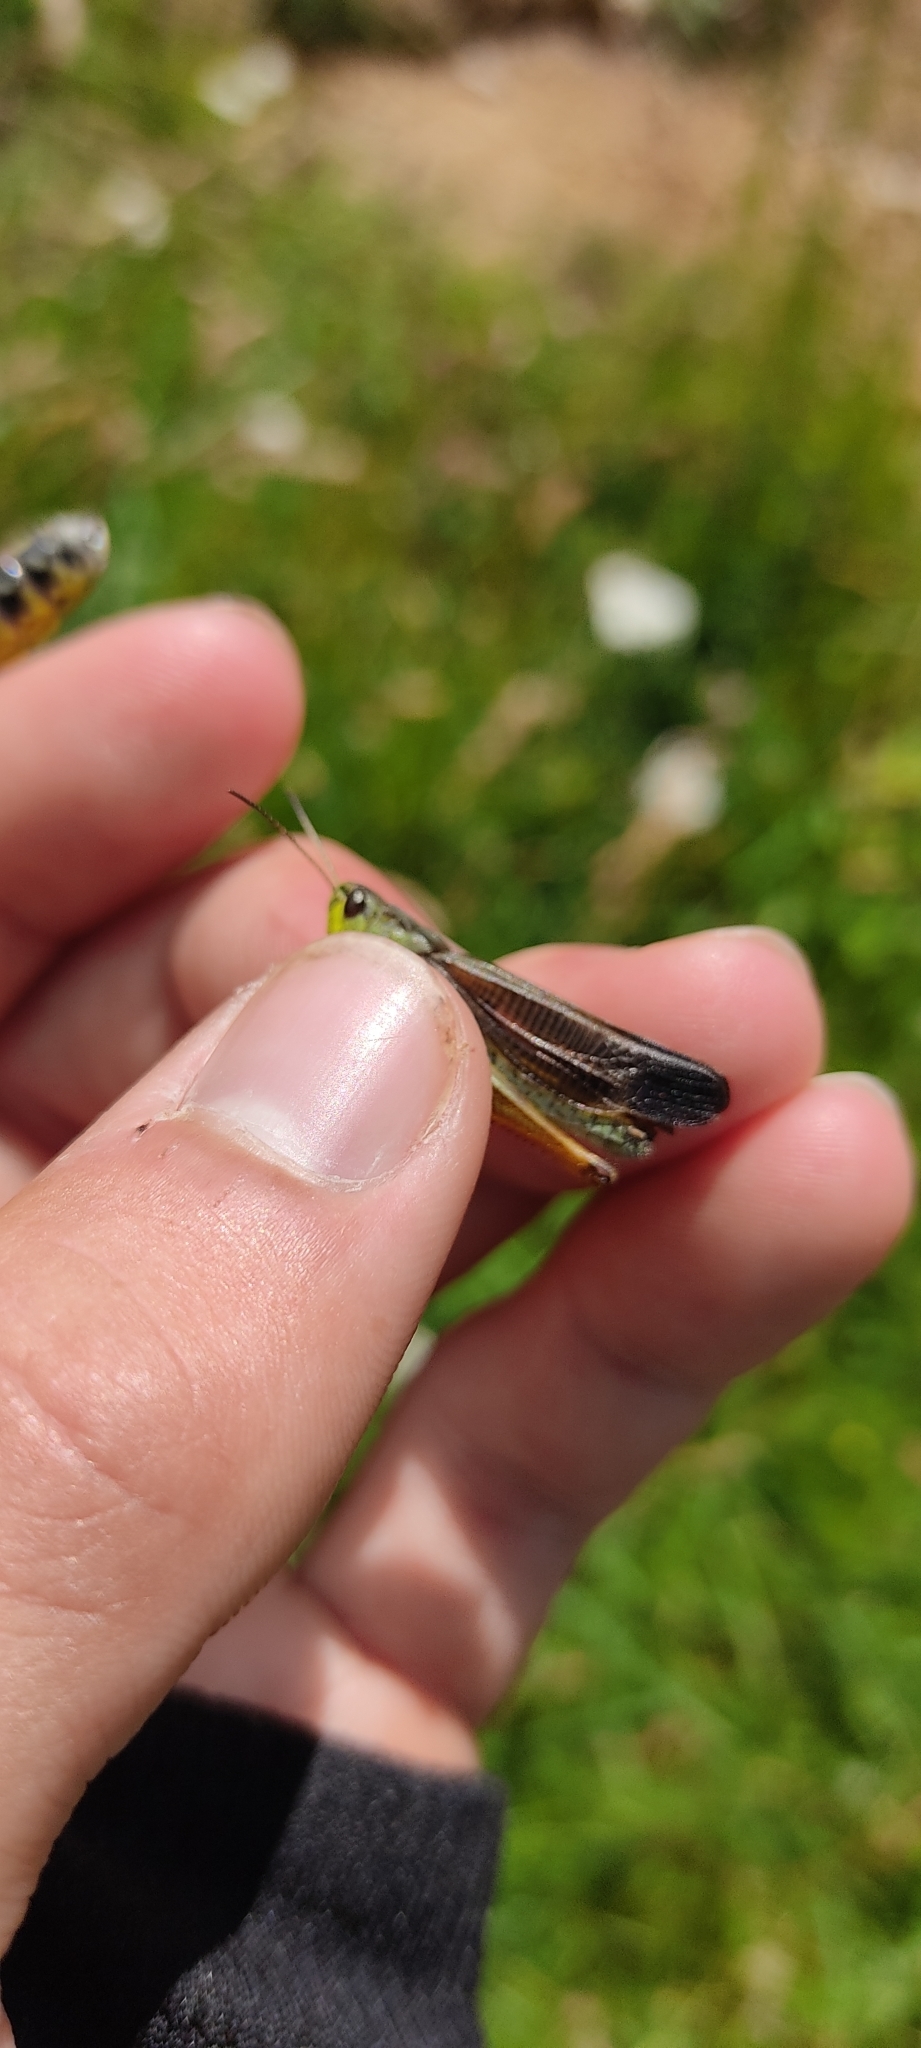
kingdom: Animalia
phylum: Arthropoda
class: Insecta
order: Orthoptera
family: Acrididae
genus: Stauroderus
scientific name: Stauroderus scalaris
